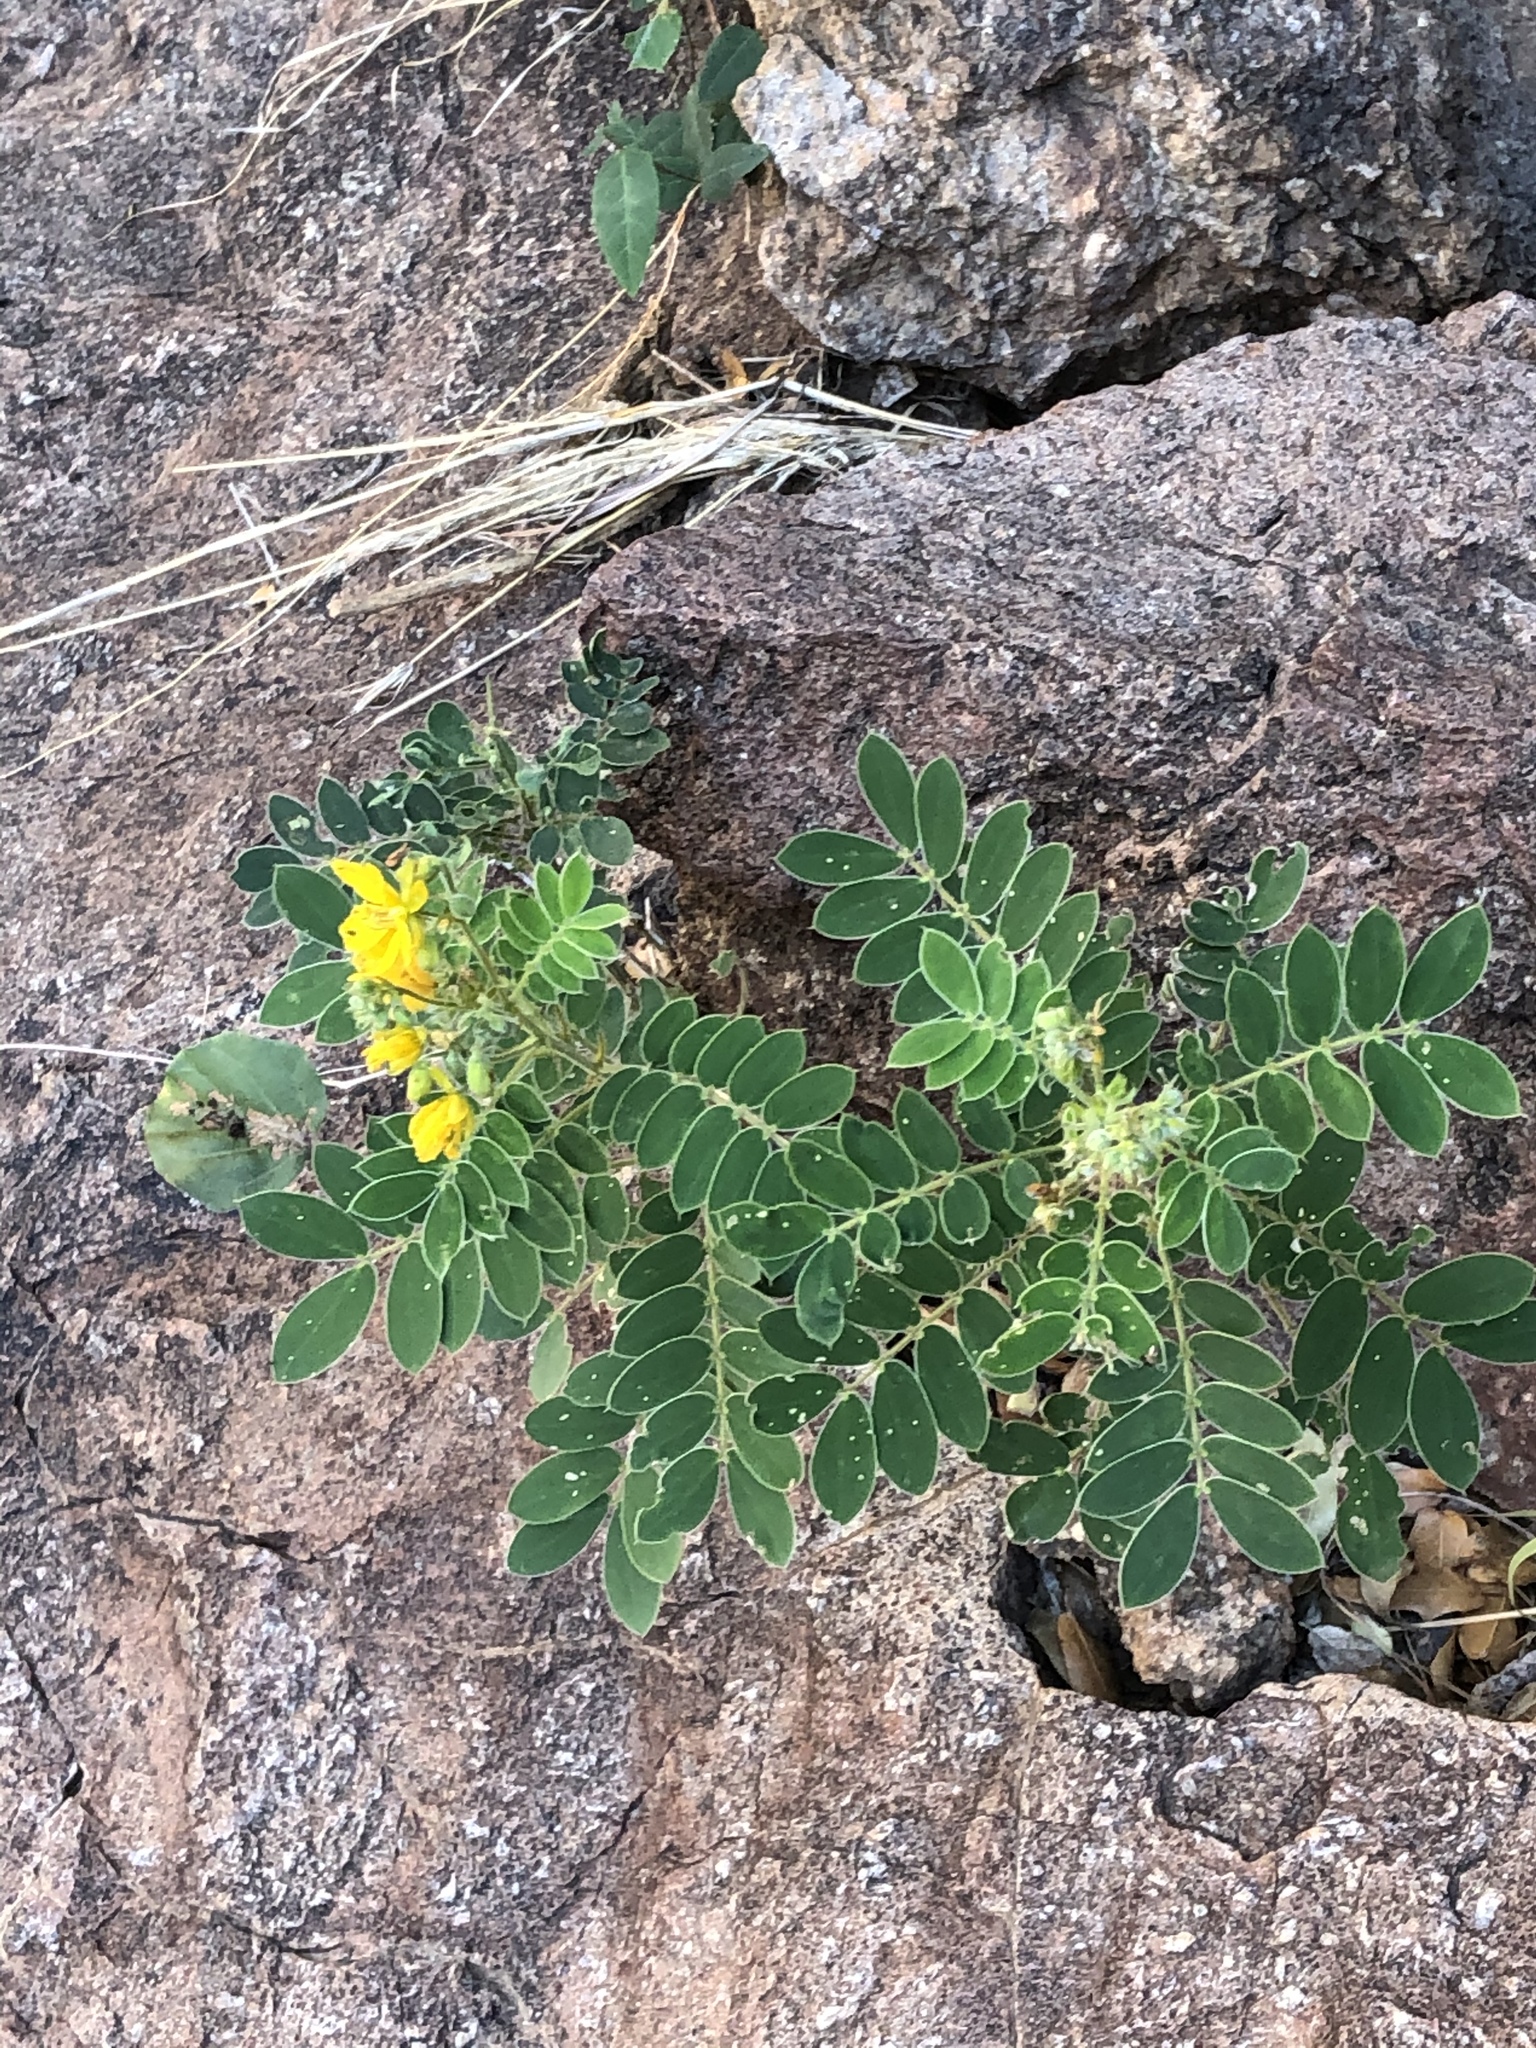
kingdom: Plantae
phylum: Tracheophyta
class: Magnoliopsida
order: Fabales
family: Fabaceae
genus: Senna
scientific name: Senna lindheimeriana
